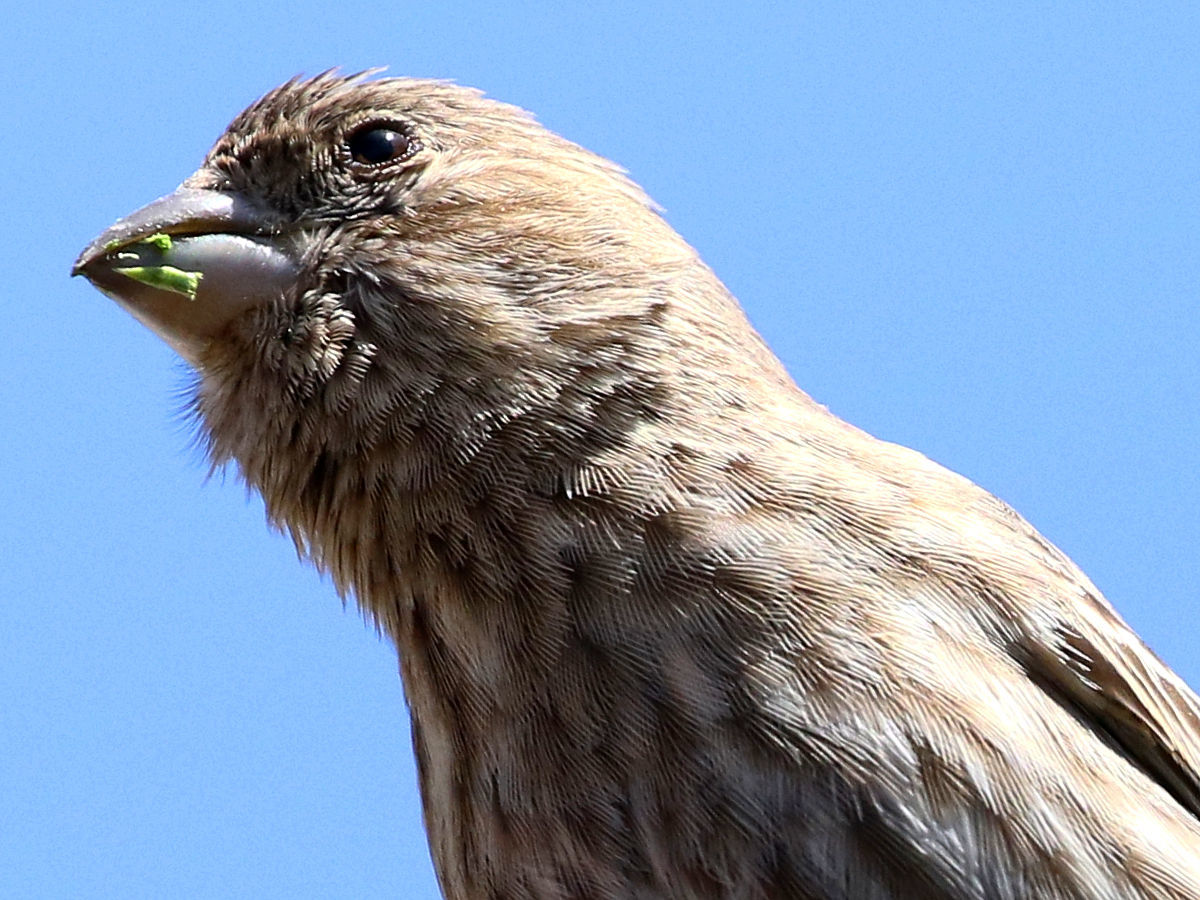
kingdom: Animalia
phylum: Chordata
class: Aves
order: Passeriformes
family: Fringillidae
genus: Haemorhous
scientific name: Haemorhous mexicanus
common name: House finch
